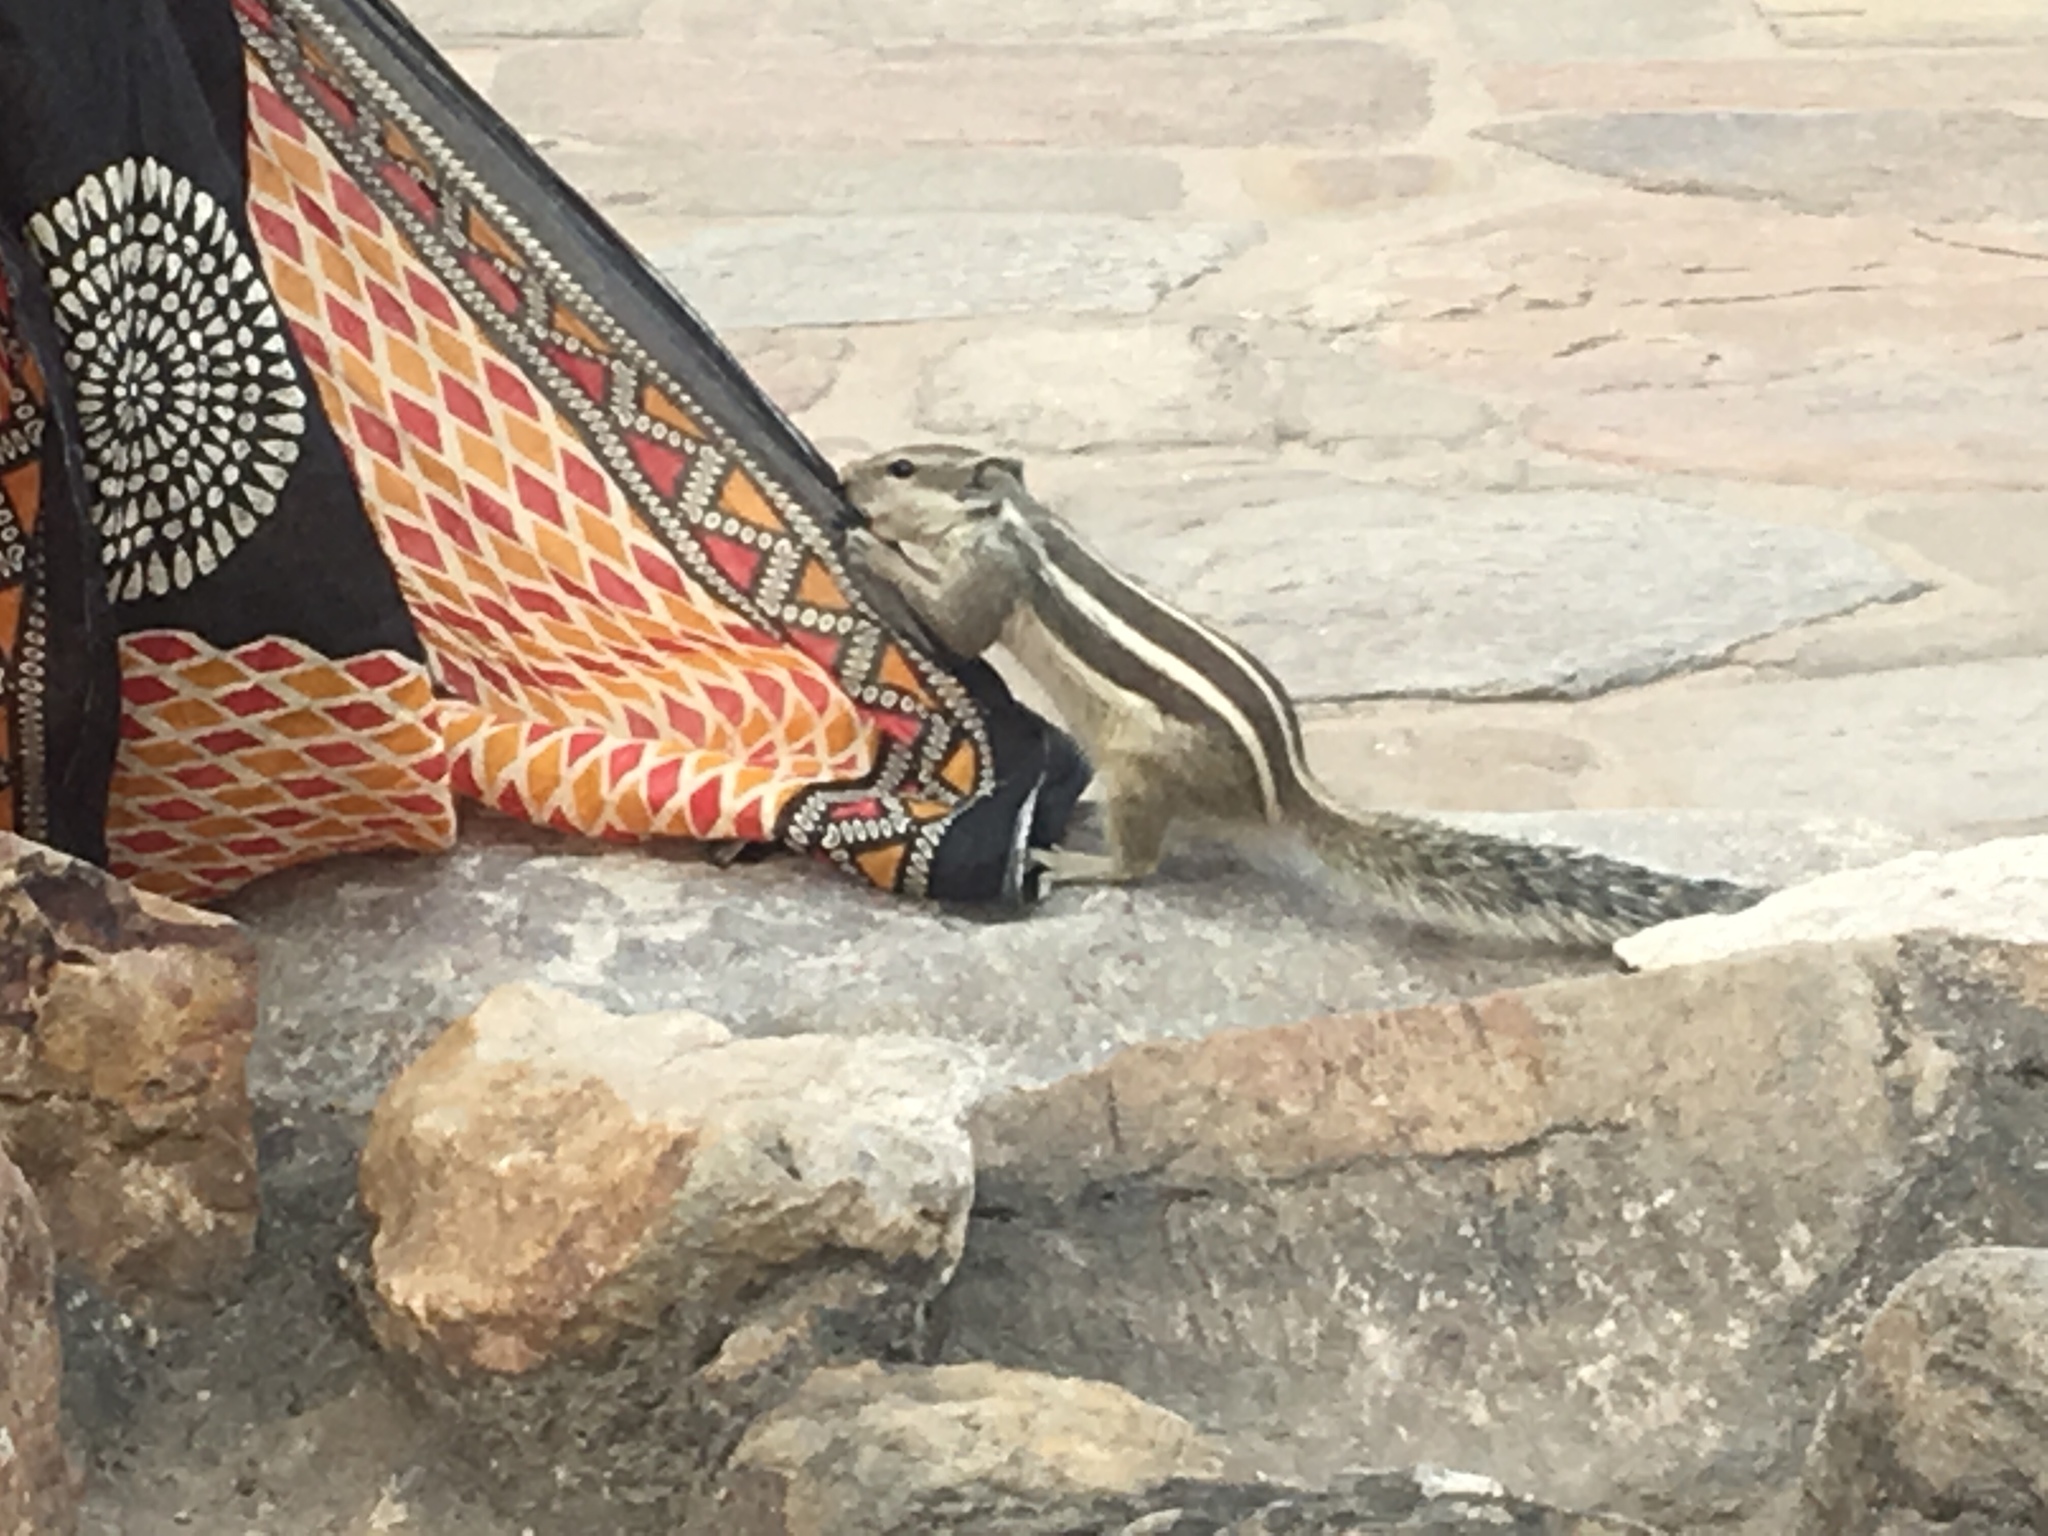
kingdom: Animalia
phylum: Chordata
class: Mammalia
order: Rodentia
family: Sciuridae
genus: Funambulus
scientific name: Funambulus pennantii
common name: Northern palm squirrel
